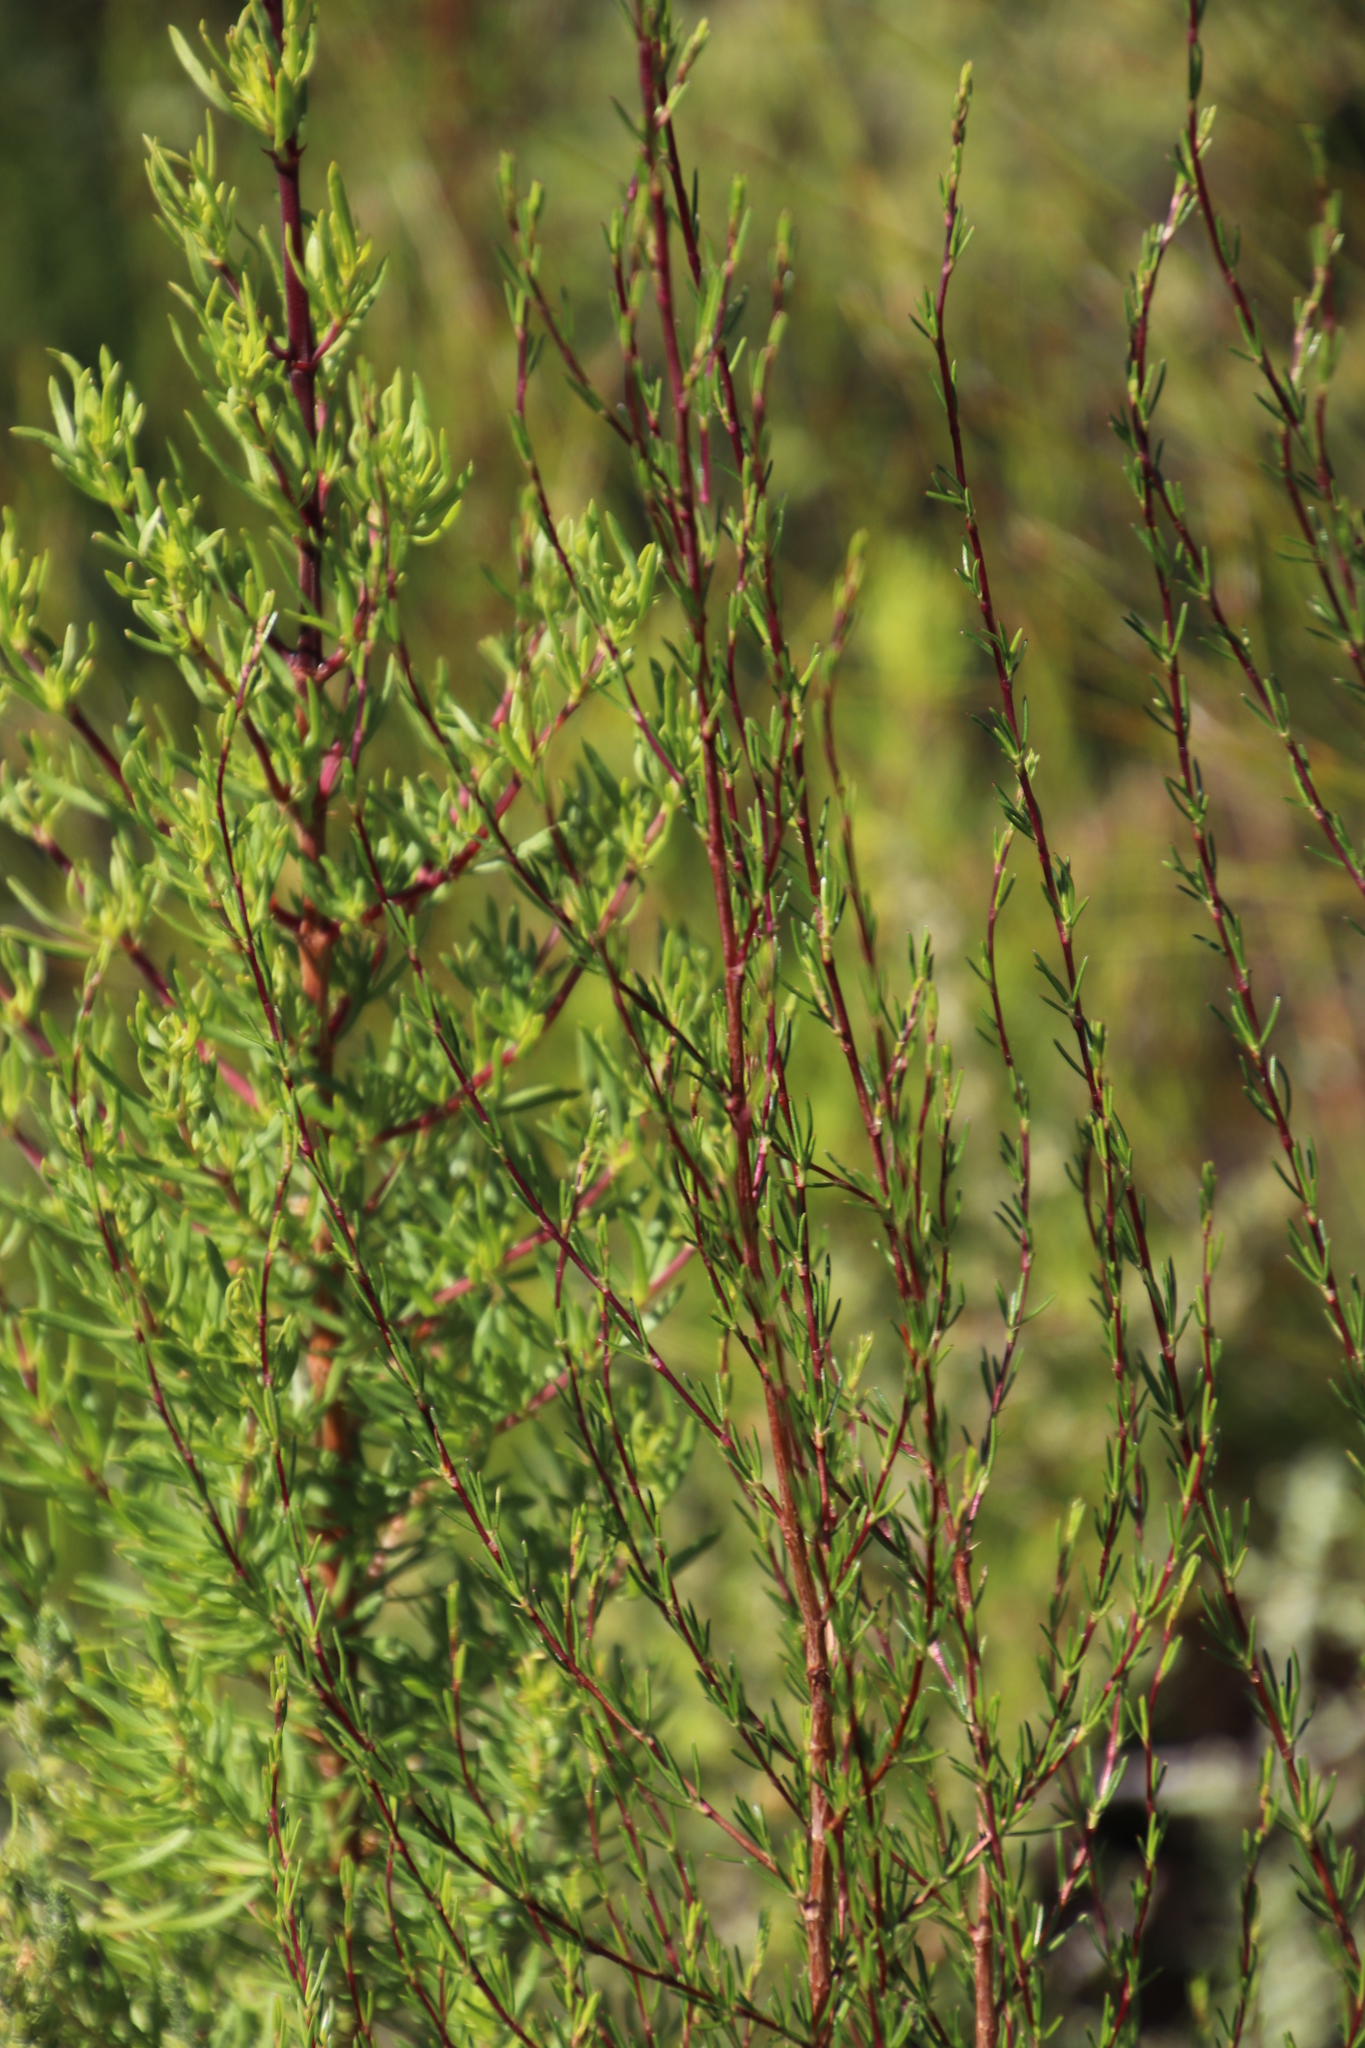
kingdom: Plantae
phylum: Tracheophyta
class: Magnoliopsida
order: Rosales
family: Rosaceae
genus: Cliffortia
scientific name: Cliffortia erectisepala
